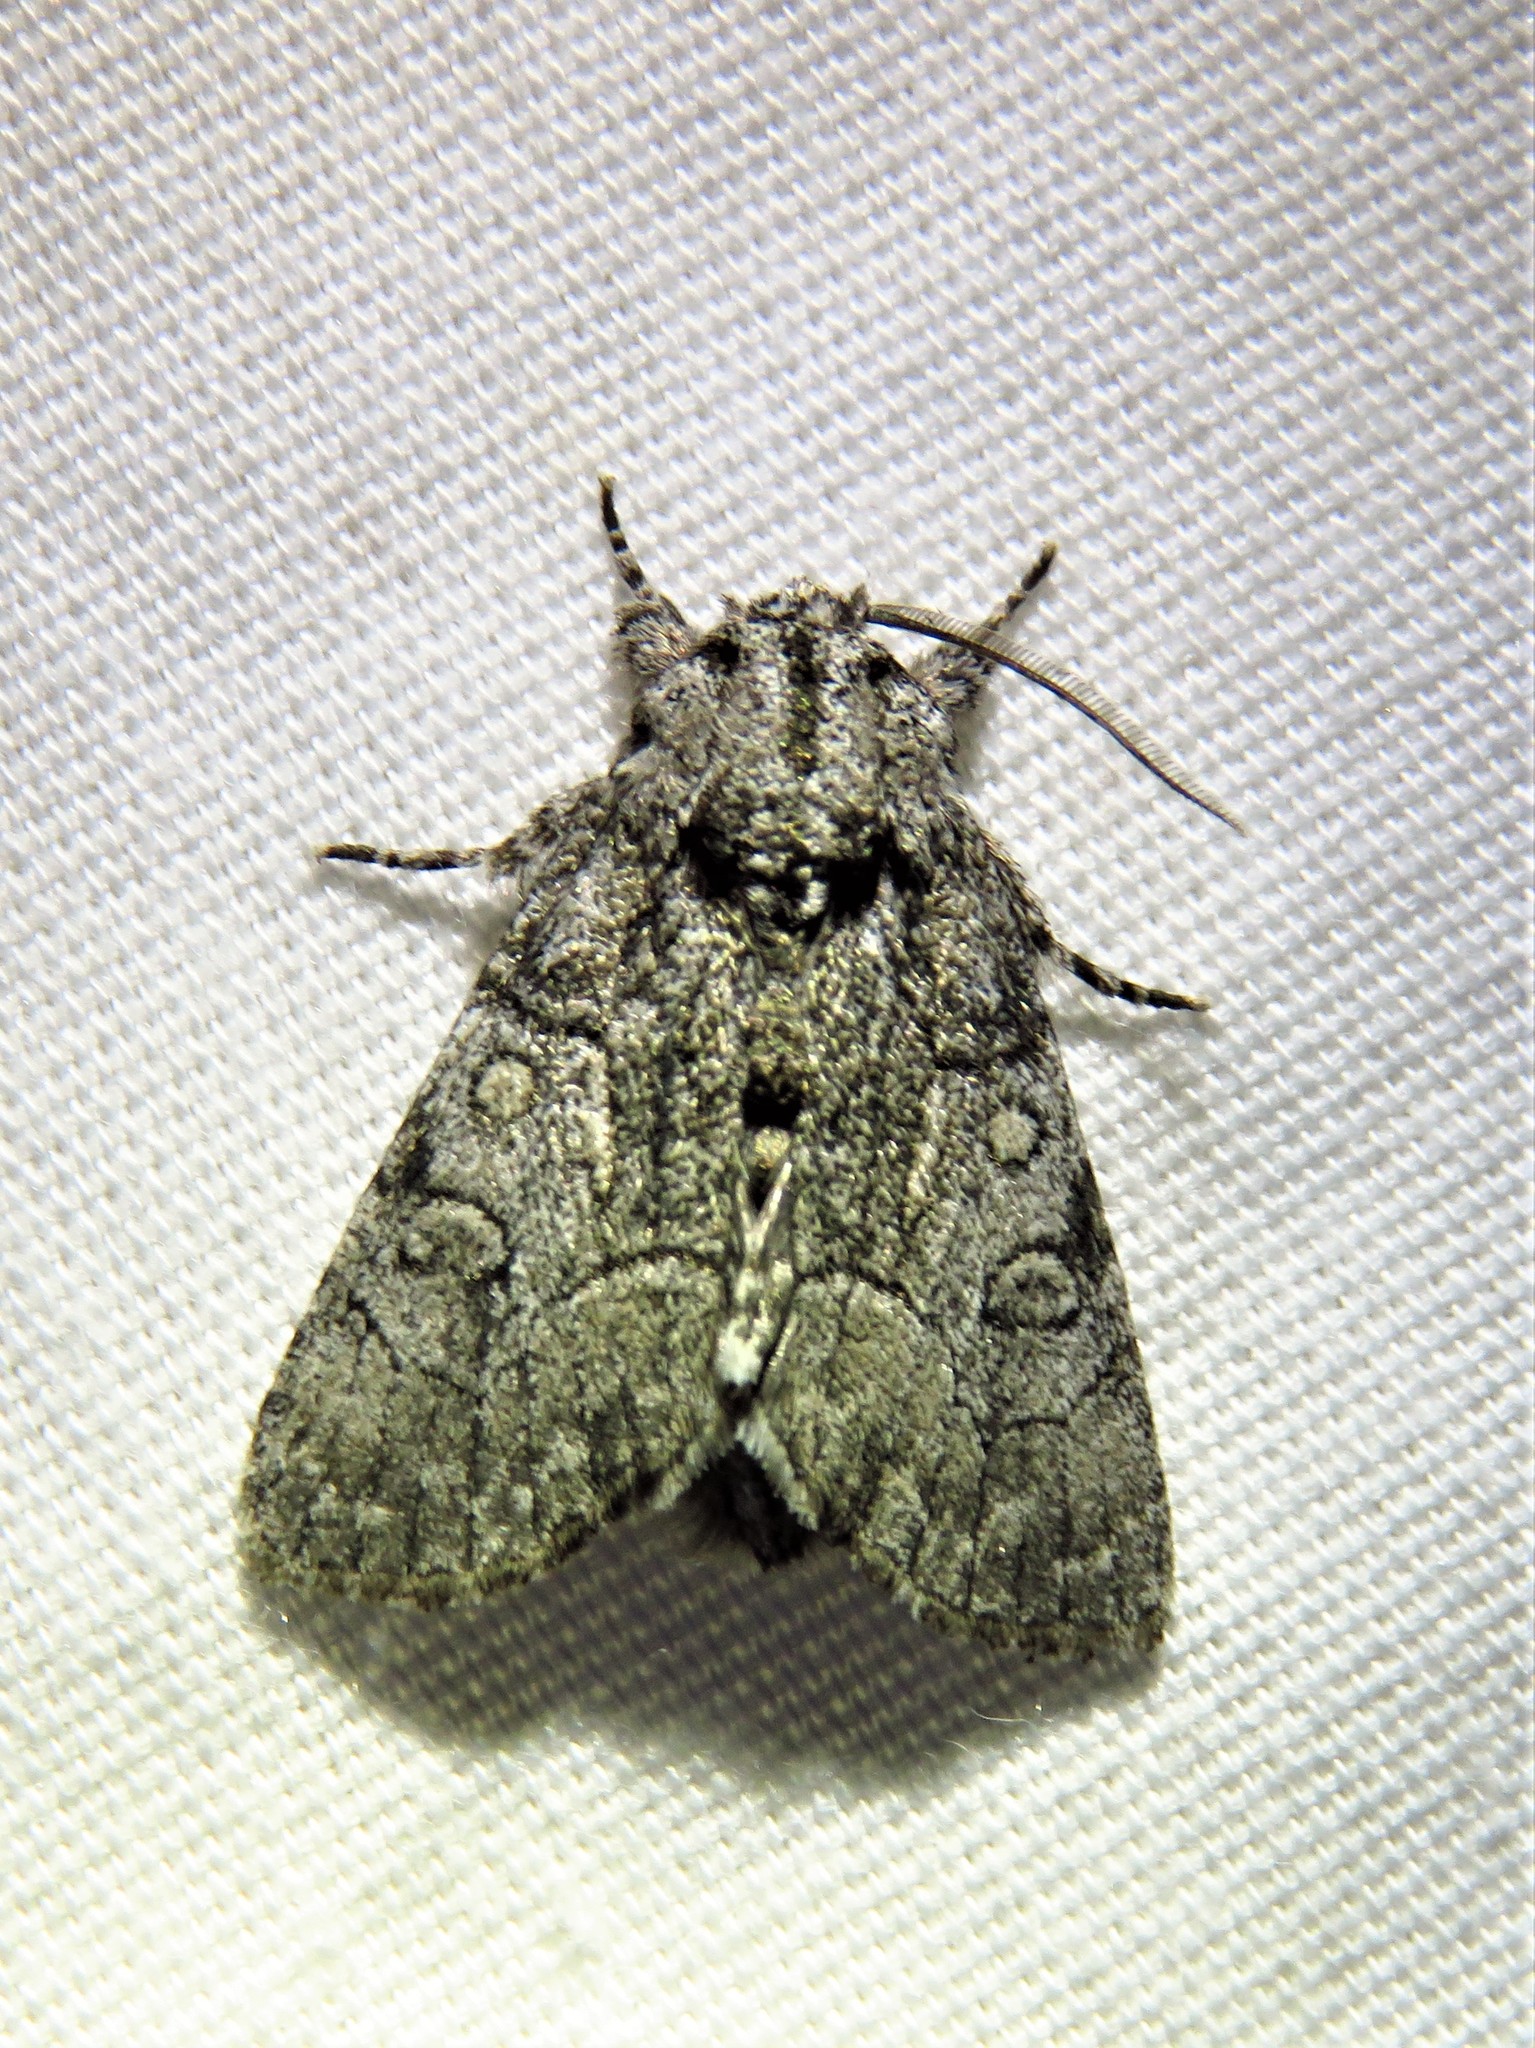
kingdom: Animalia
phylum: Arthropoda
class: Insecta
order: Lepidoptera
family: Noctuidae
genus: Raphia
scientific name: Raphia frater
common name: Brother
